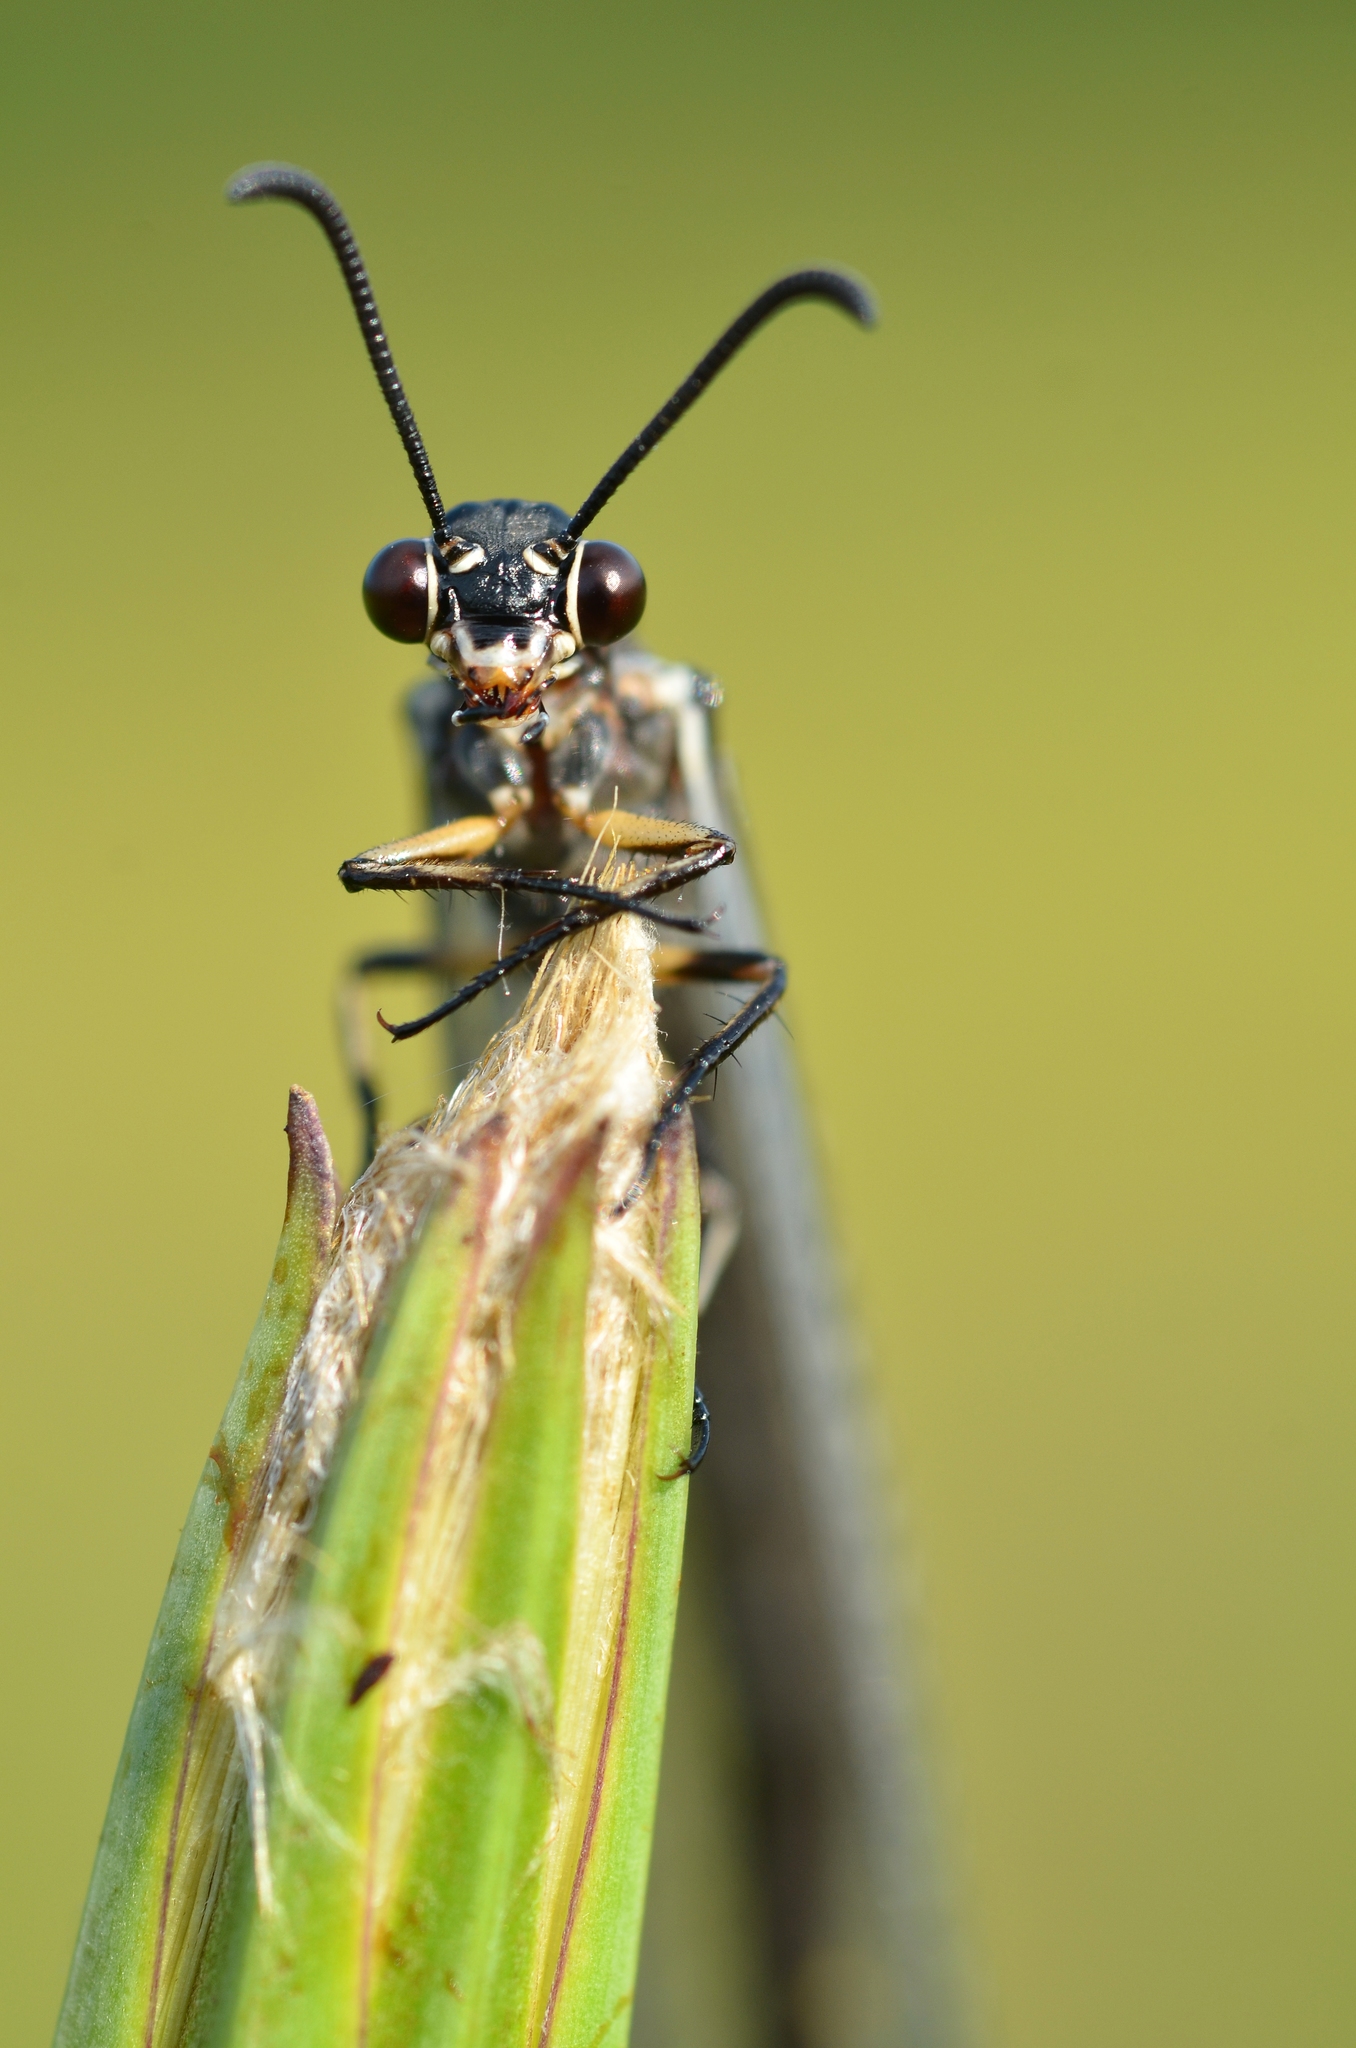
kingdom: Animalia
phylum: Arthropoda
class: Insecta
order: Neuroptera
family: Myrmeleontidae
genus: Myrmeleon
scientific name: Myrmeleon formicarius
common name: Ant-lion
